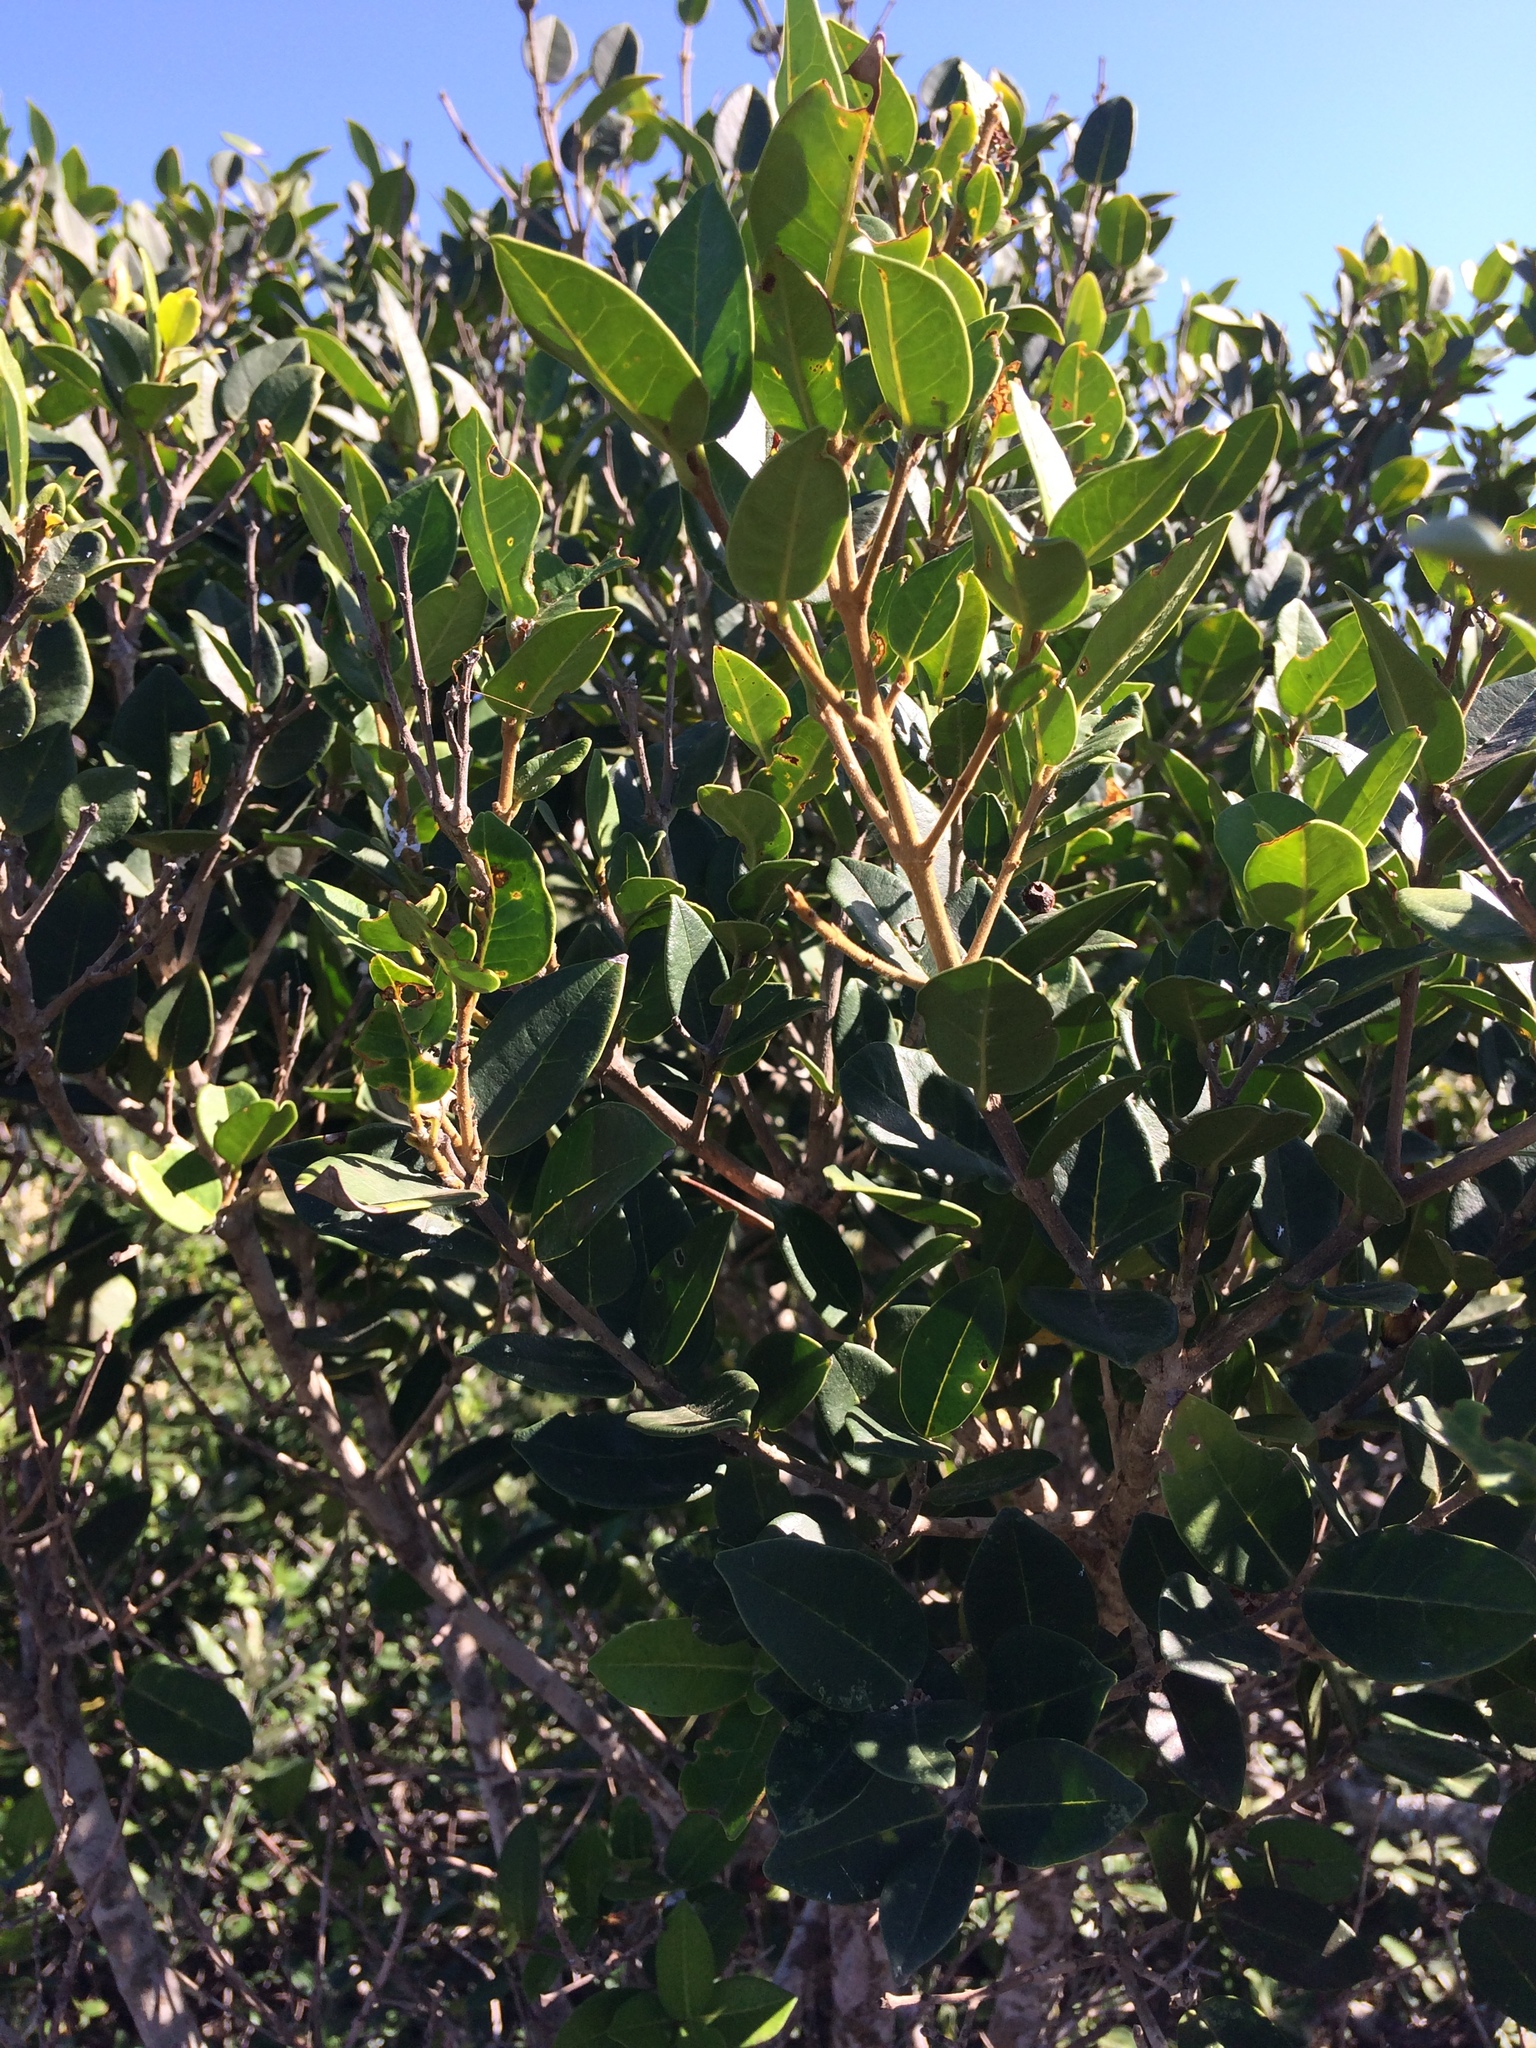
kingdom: Plantae
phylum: Tracheophyta
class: Magnoliopsida
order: Lamiales
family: Oleaceae
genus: Noronhia
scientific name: Noronhia foveolata
